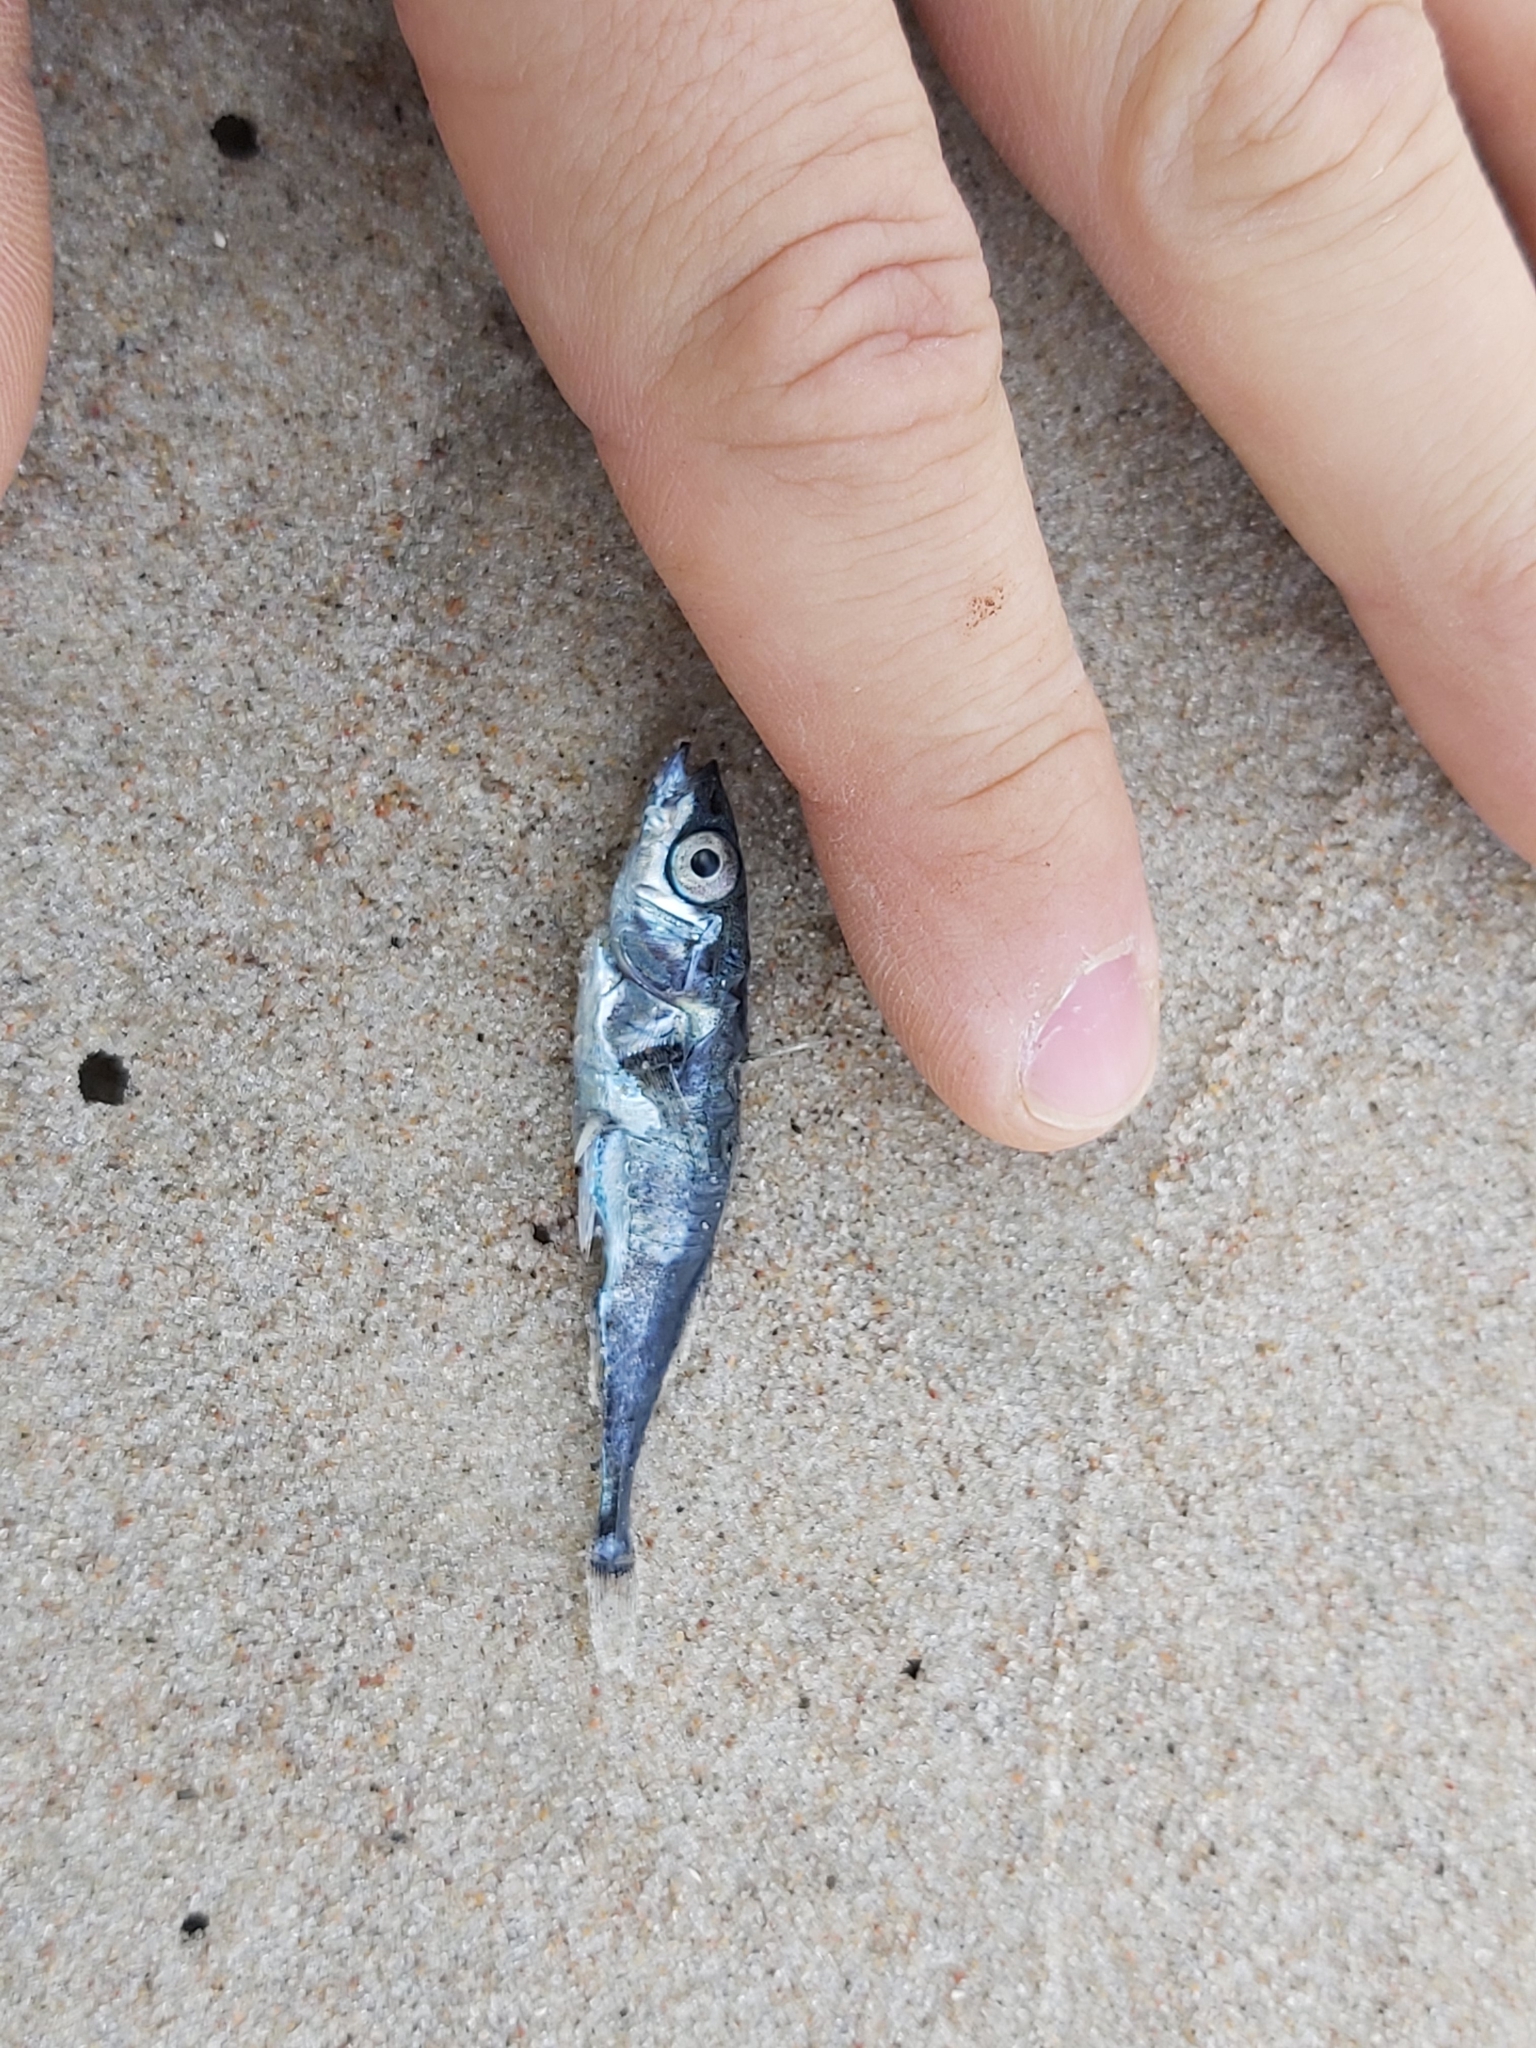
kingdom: Animalia
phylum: Chordata
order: Gasterosteiformes
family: Gasterosteidae
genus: Gasterosteus
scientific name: Gasterosteus aculeatus
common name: Three-spined stickleback
